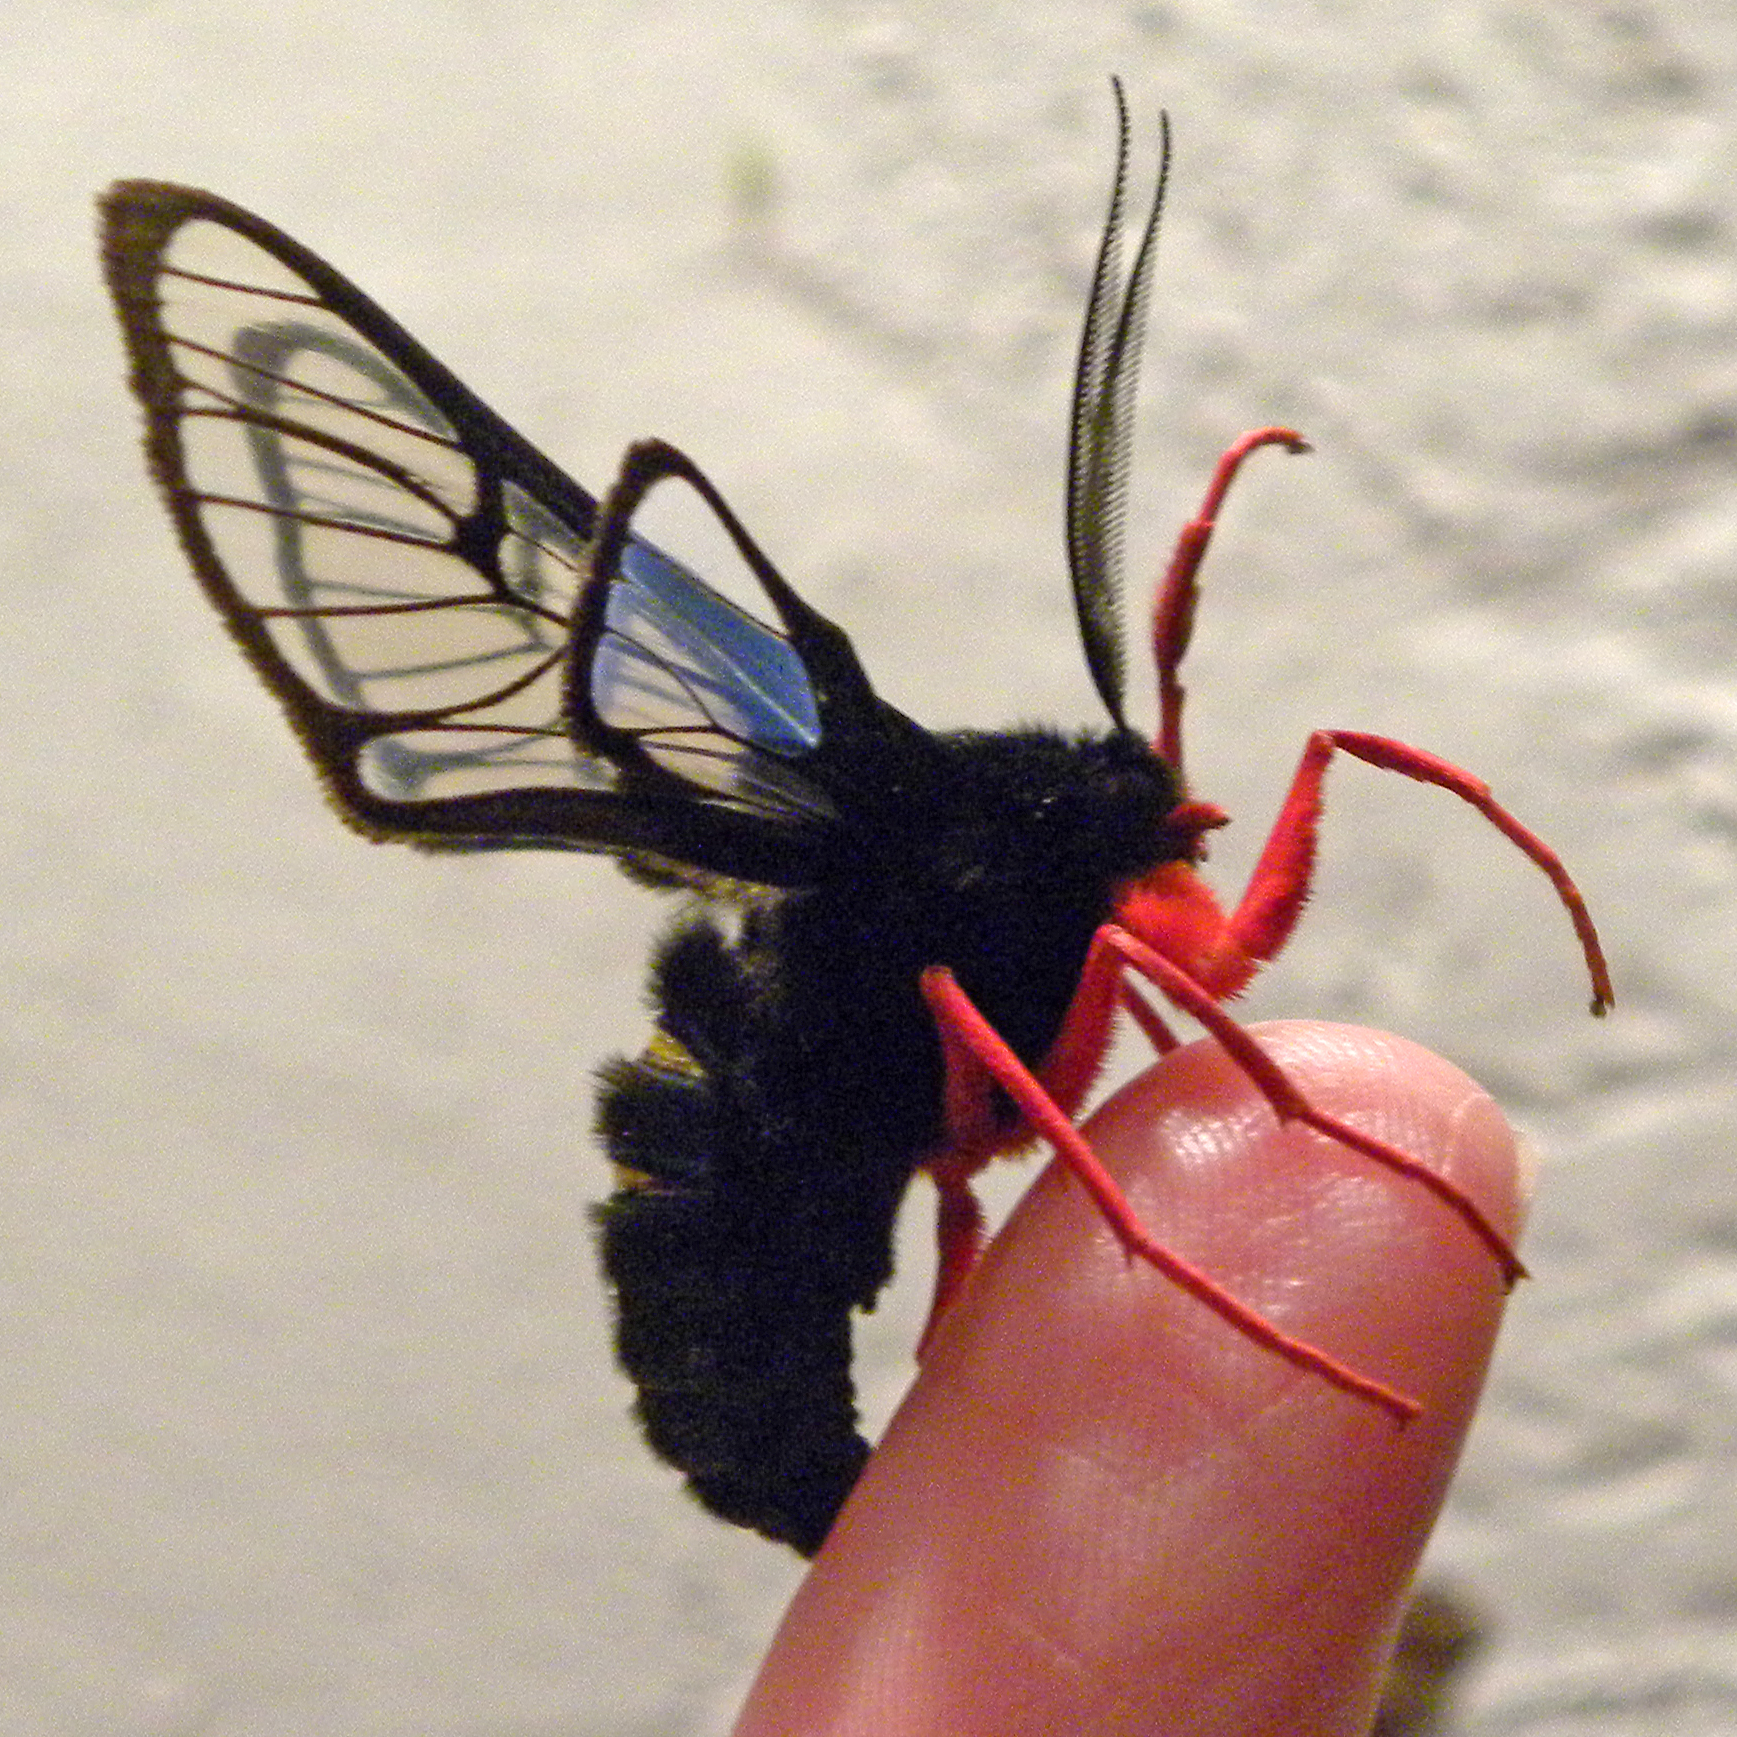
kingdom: Animalia
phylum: Arthropoda
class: Insecta
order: Lepidoptera
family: Erebidae
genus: Cosmosoma
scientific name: Cosmosoma gigantea
